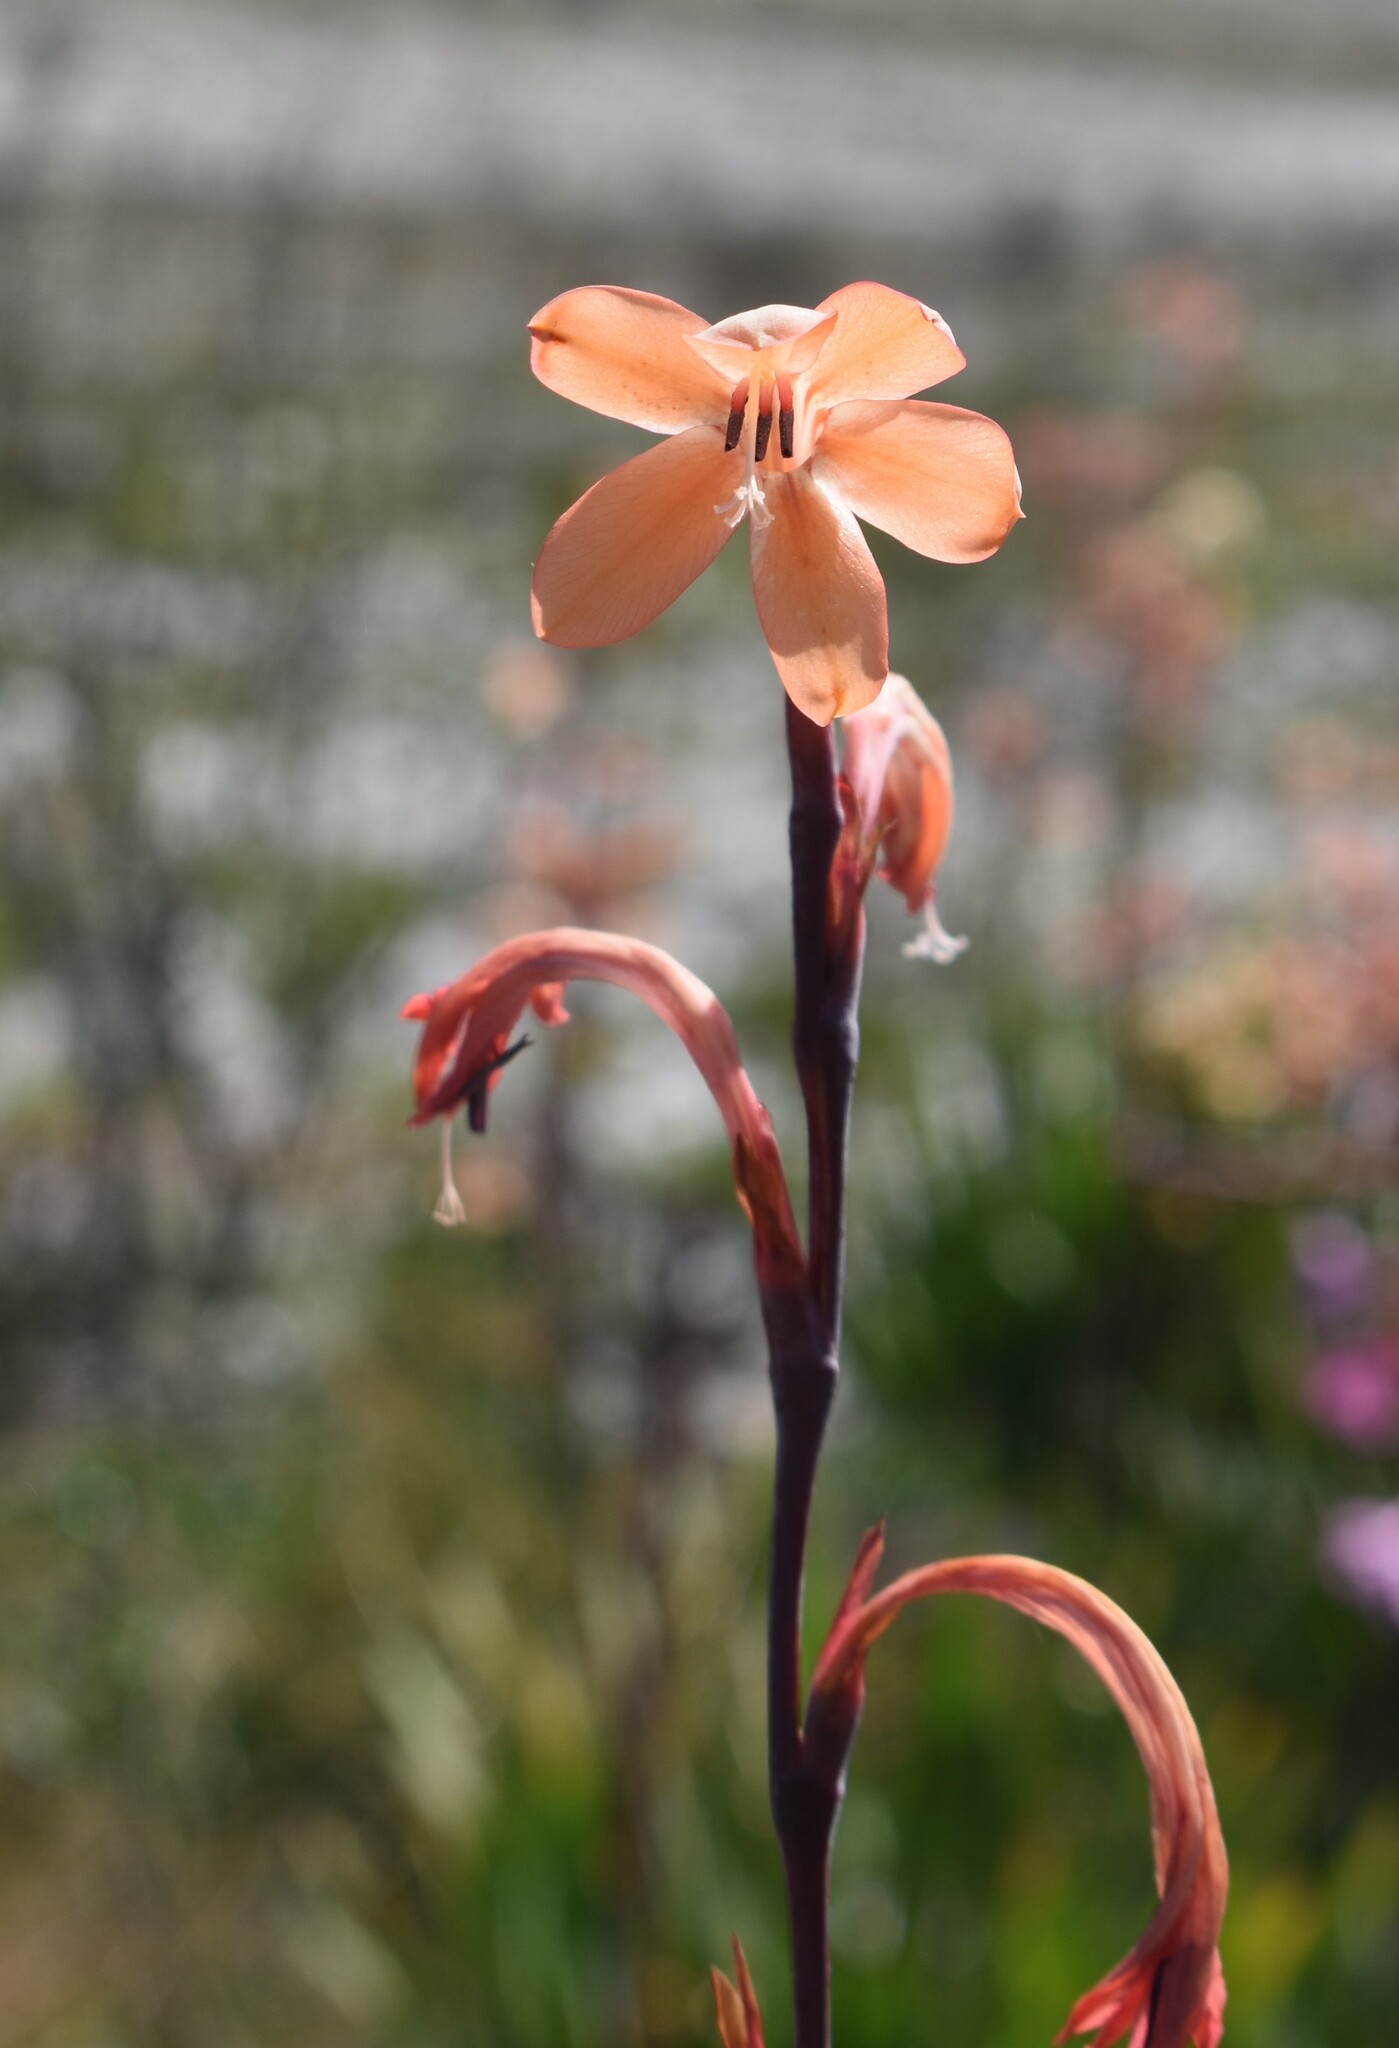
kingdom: Plantae
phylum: Tracheophyta
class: Liliopsida
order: Asparagales
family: Iridaceae
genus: Watsonia
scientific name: Watsonia meriana
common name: Bulbil bugle-lily
